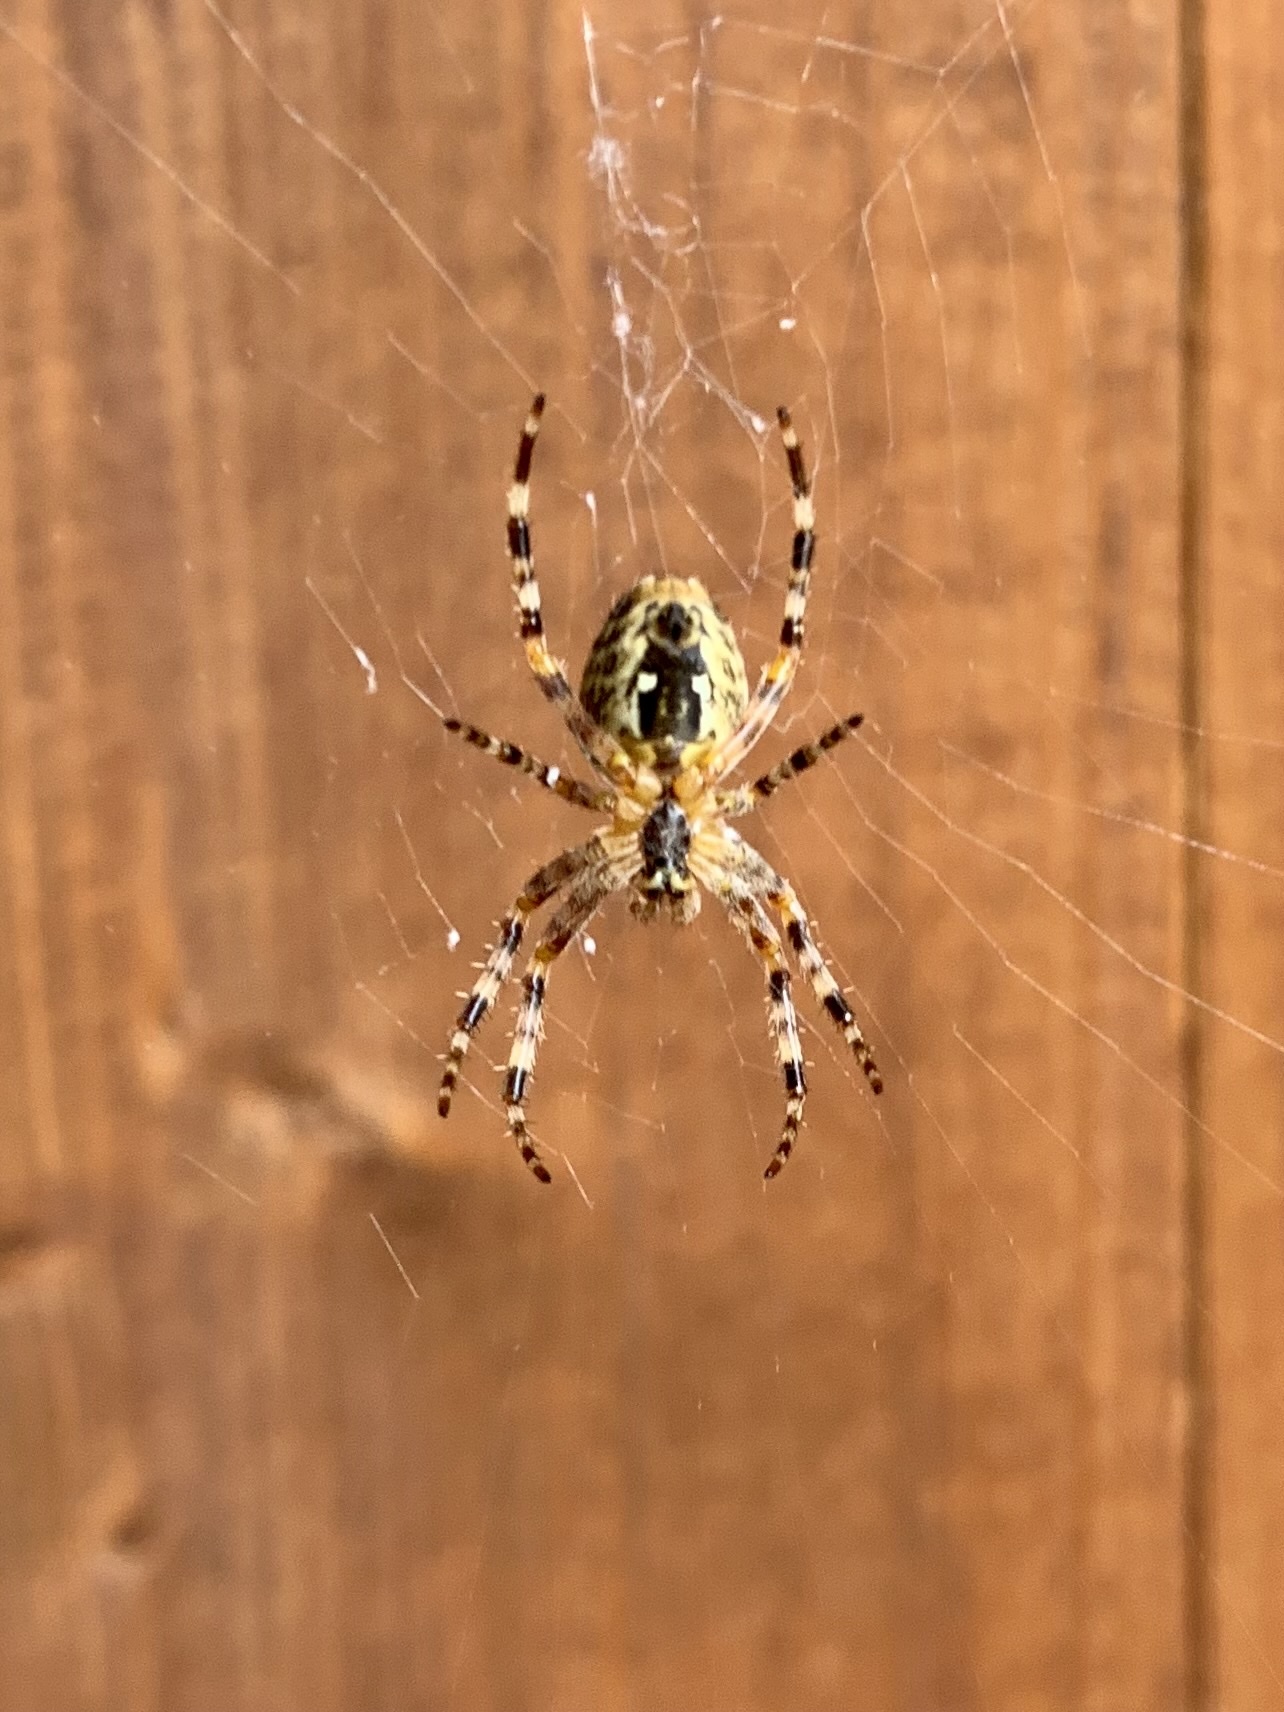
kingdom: Animalia
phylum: Arthropoda
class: Arachnida
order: Araneae
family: Araneidae
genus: Araneus
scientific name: Araneus diadematus
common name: Cross orbweaver
